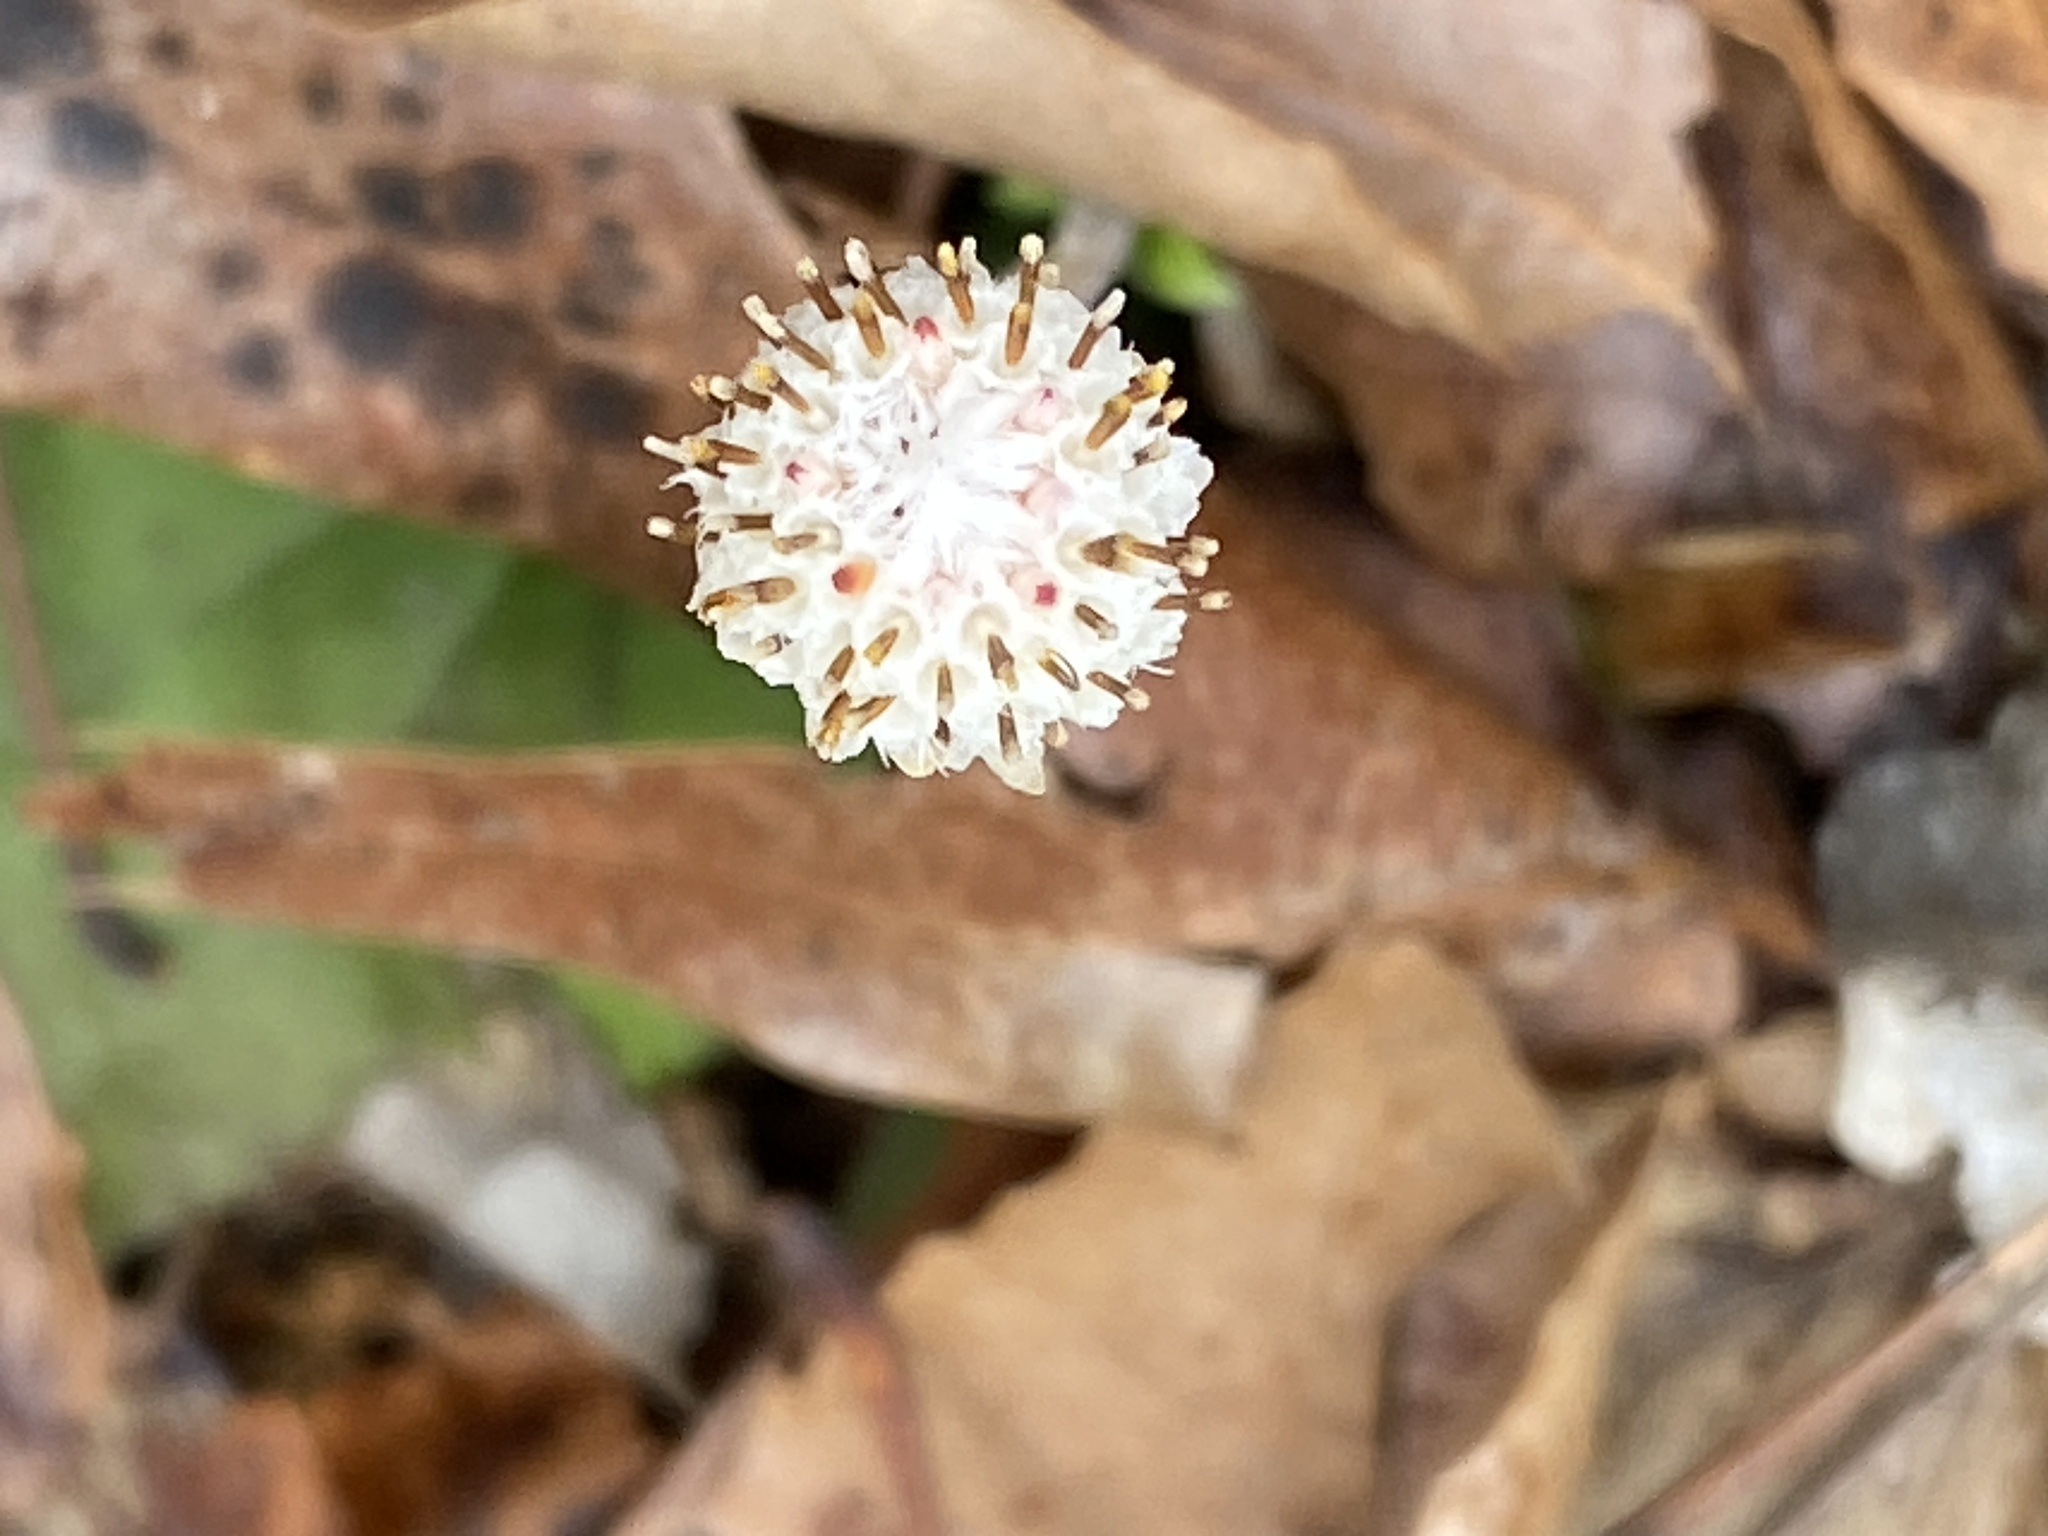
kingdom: Plantae
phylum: Tracheophyta
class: Magnoliopsida
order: Asterales
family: Asteraceae
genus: Antennaria
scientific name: Antennaria solitaria
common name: Single-head pussytoes
